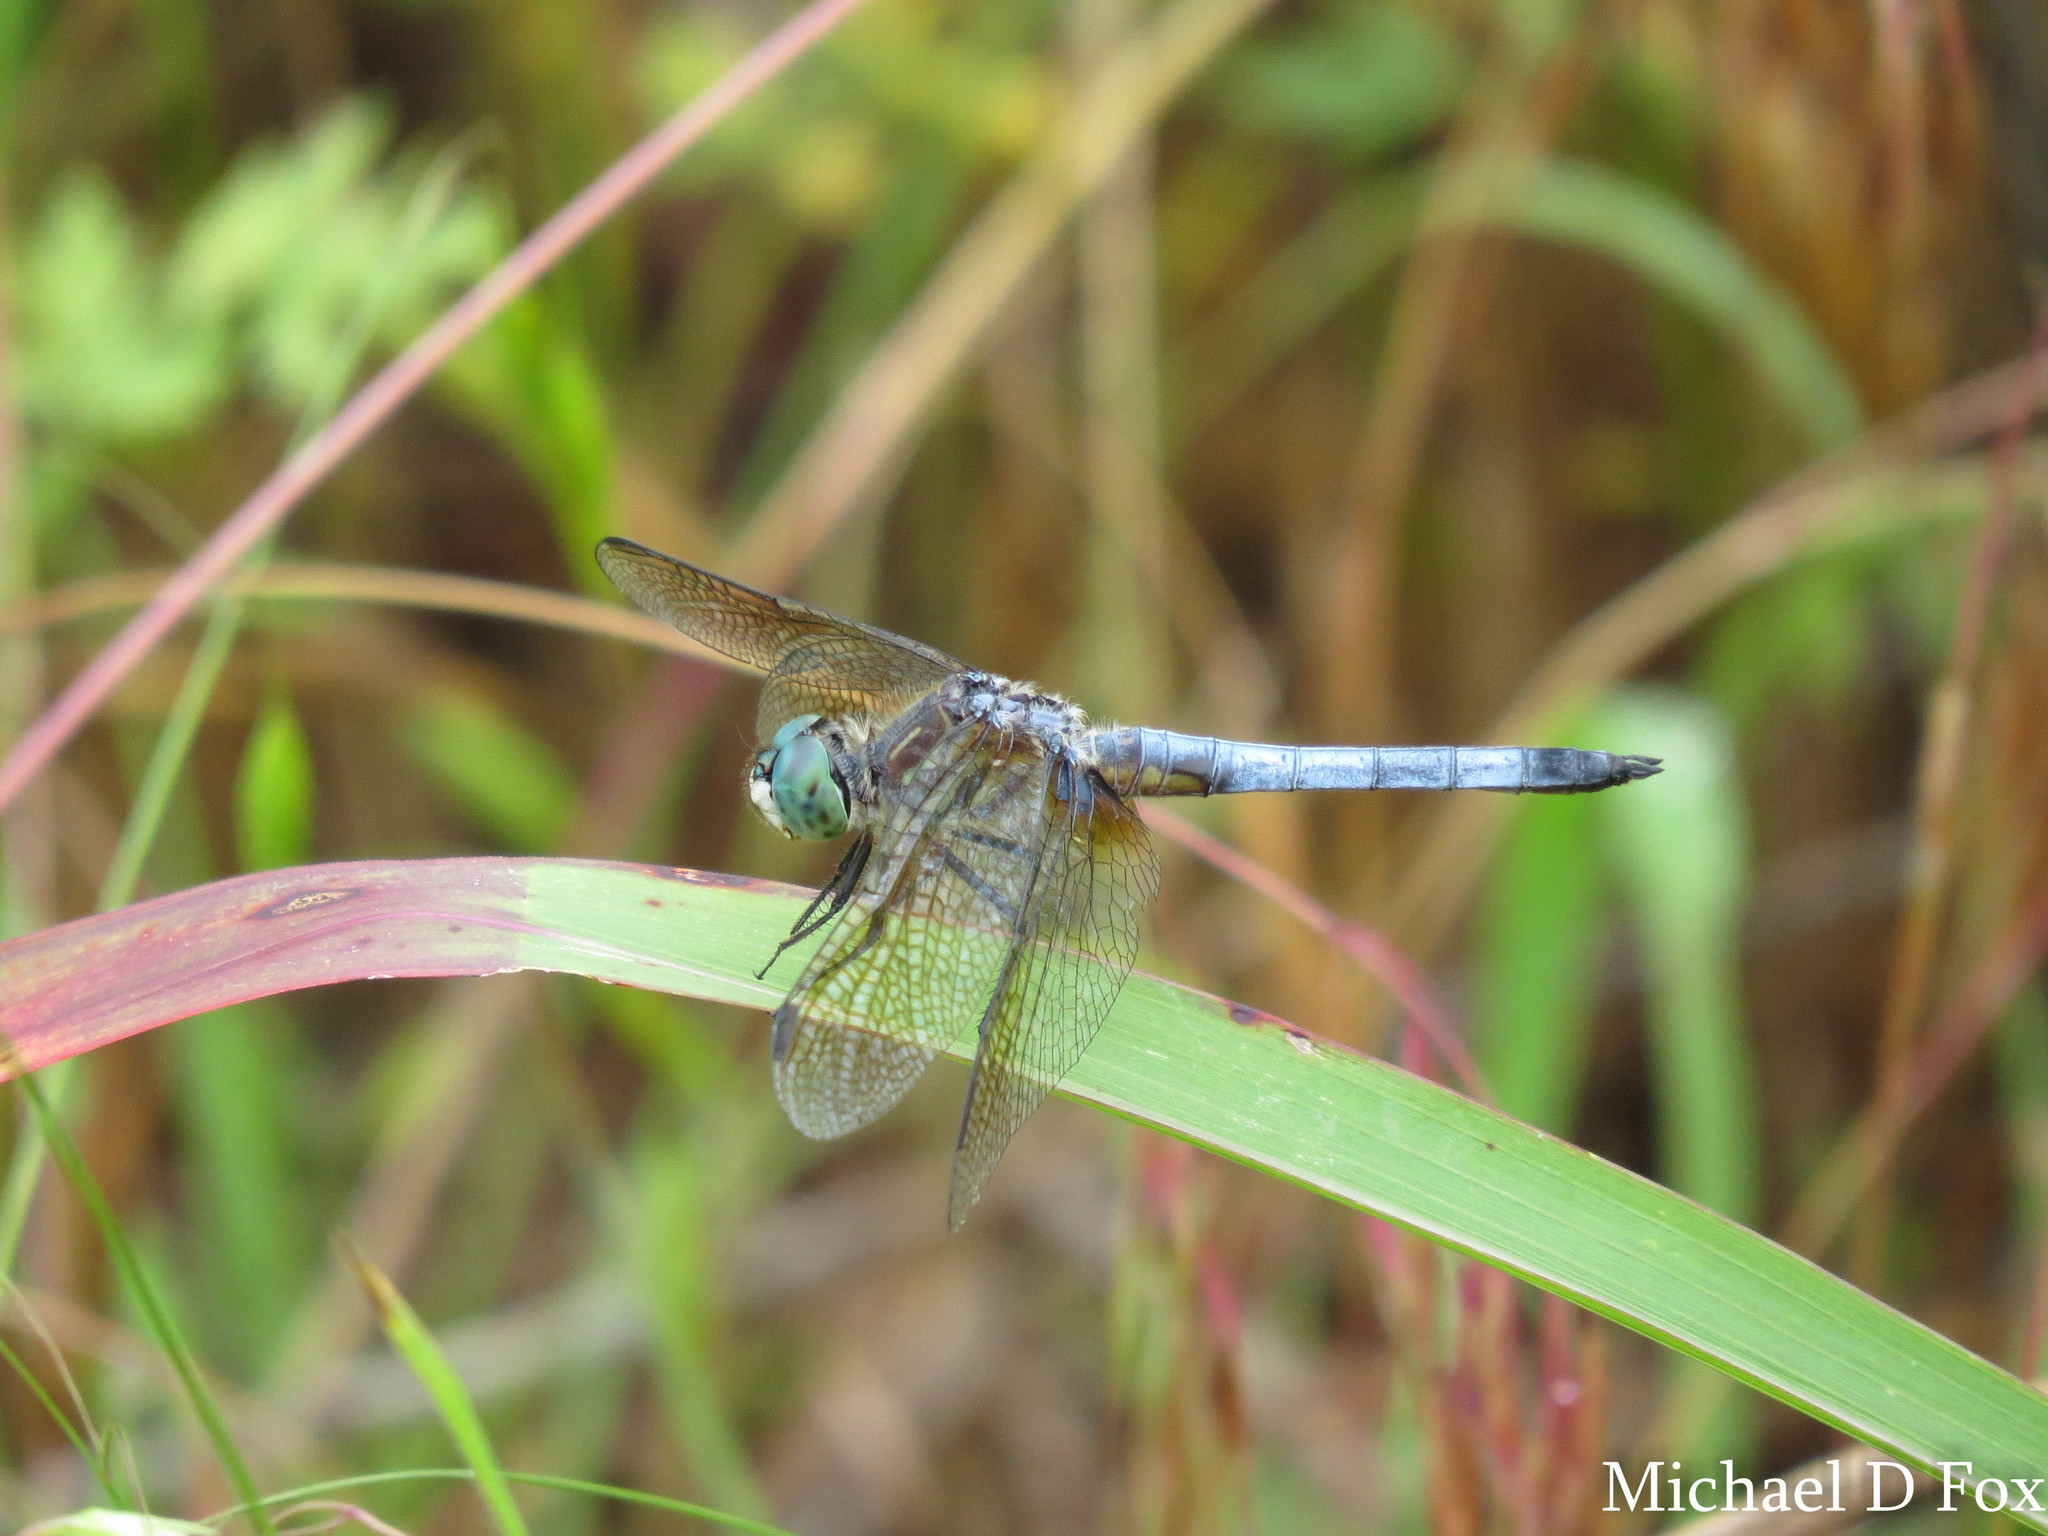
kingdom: Animalia
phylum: Arthropoda
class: Insecta
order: Odonata
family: Libellulidae
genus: Pachydiplax
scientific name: Pachydiplax longipennis
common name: Blue dasher
